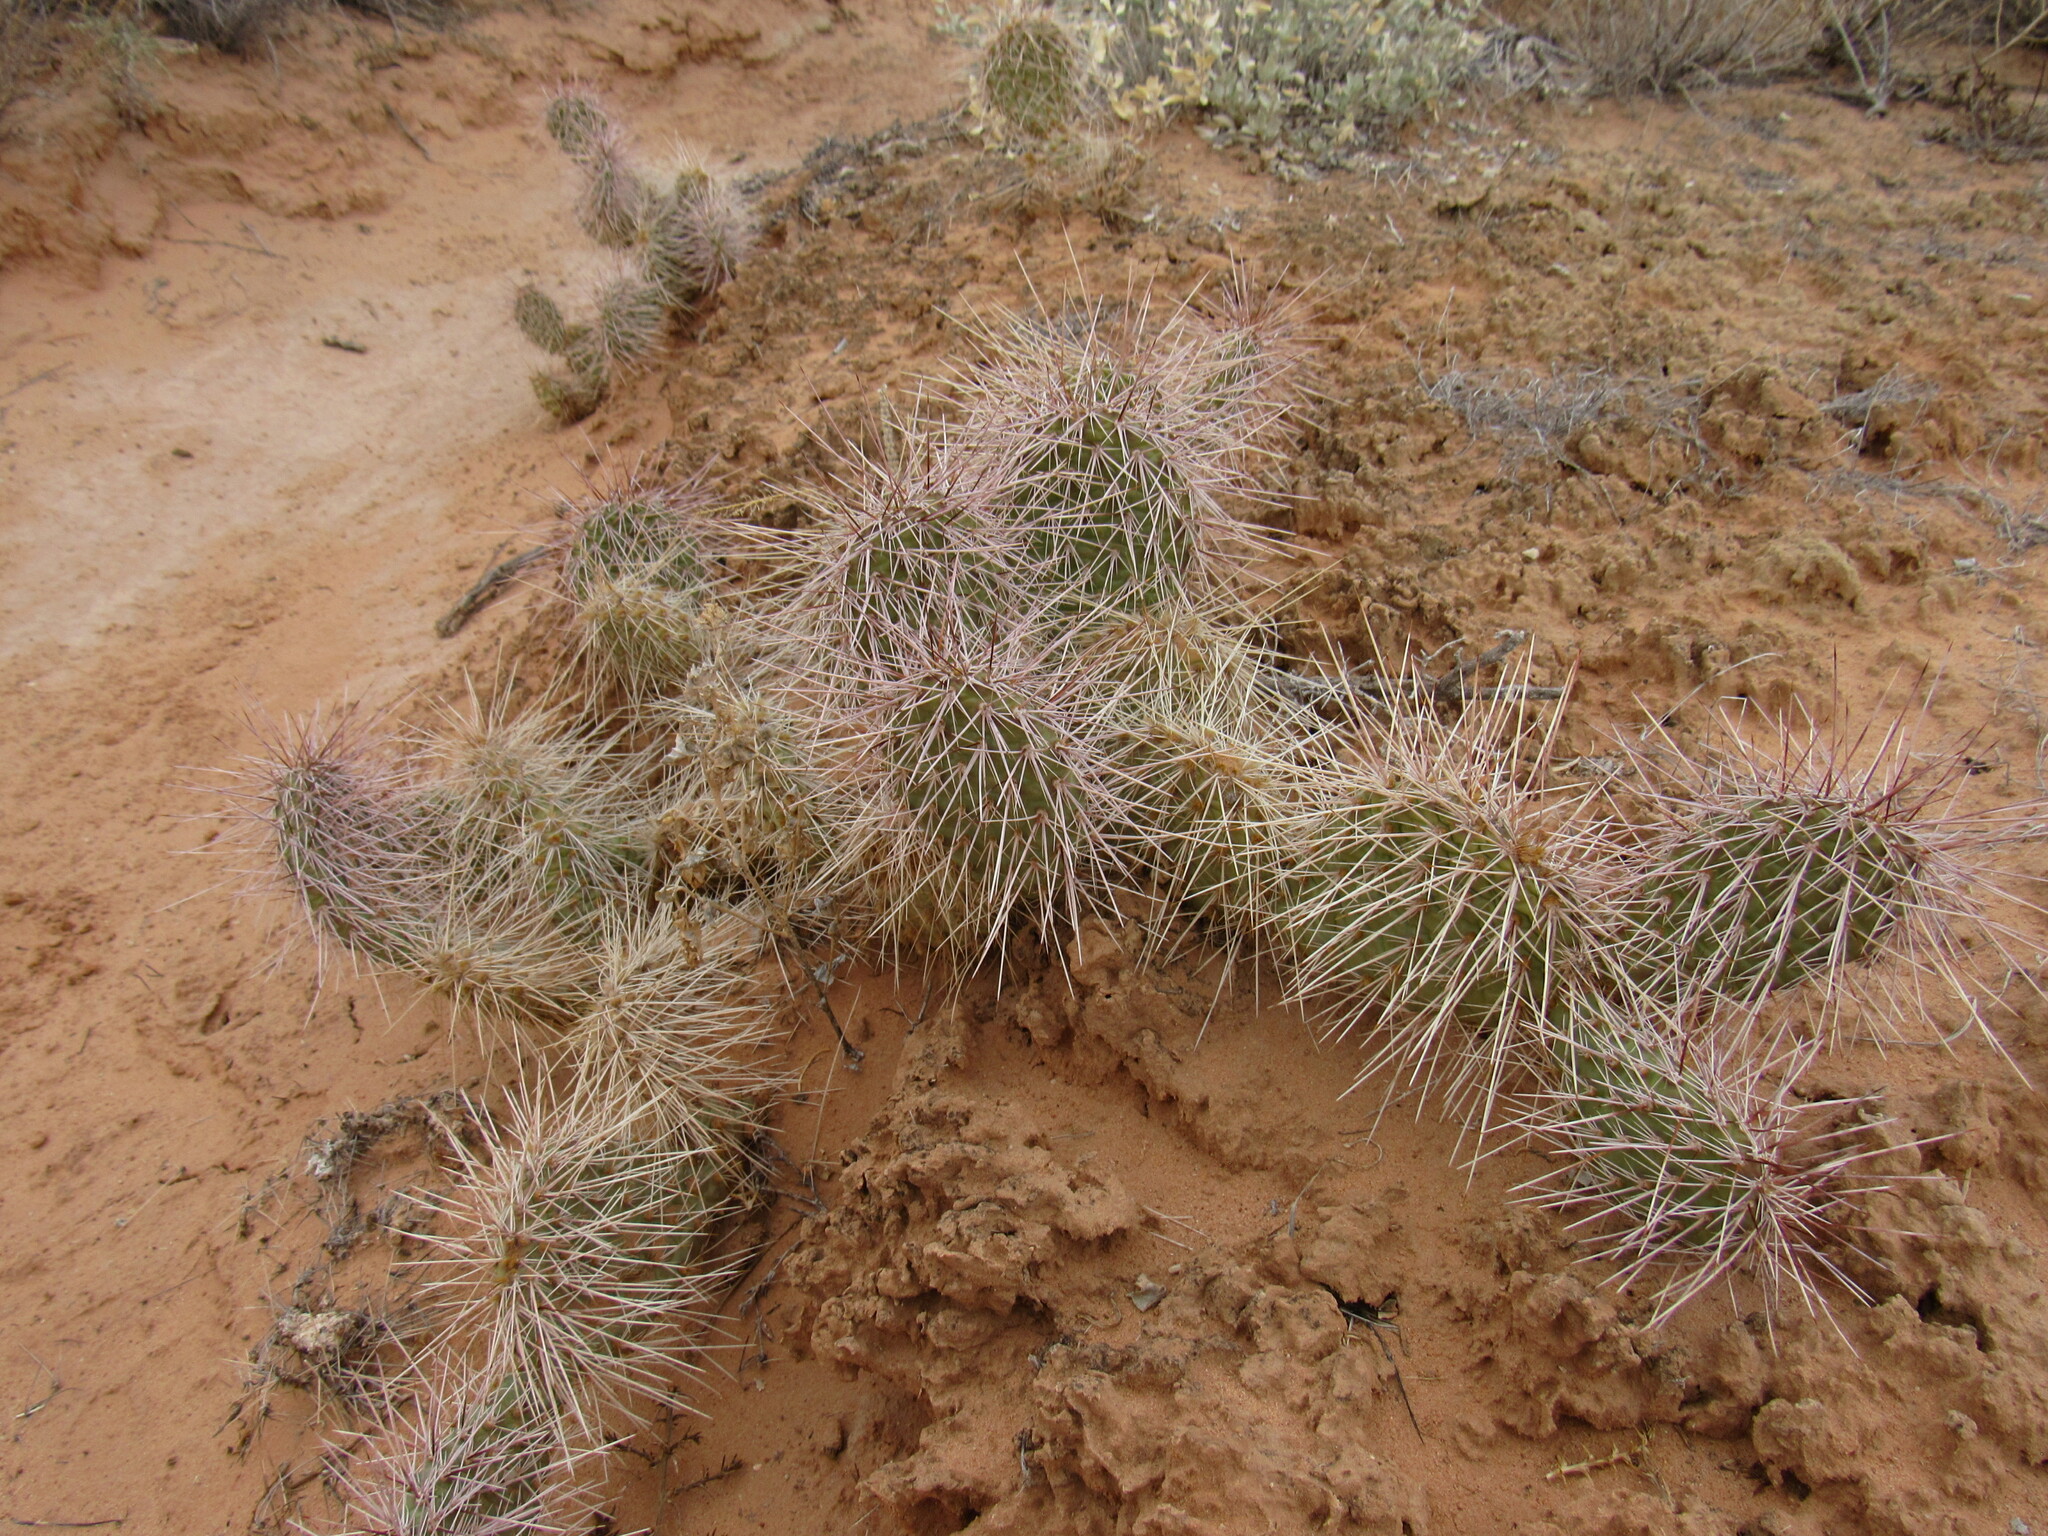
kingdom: Plantae
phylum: Tracheophyta
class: Magnoliopsida
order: Caryophyllales
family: Cactaceae
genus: Opuntia
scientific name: Opuntia polyacantha
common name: Plains prickly-pear
